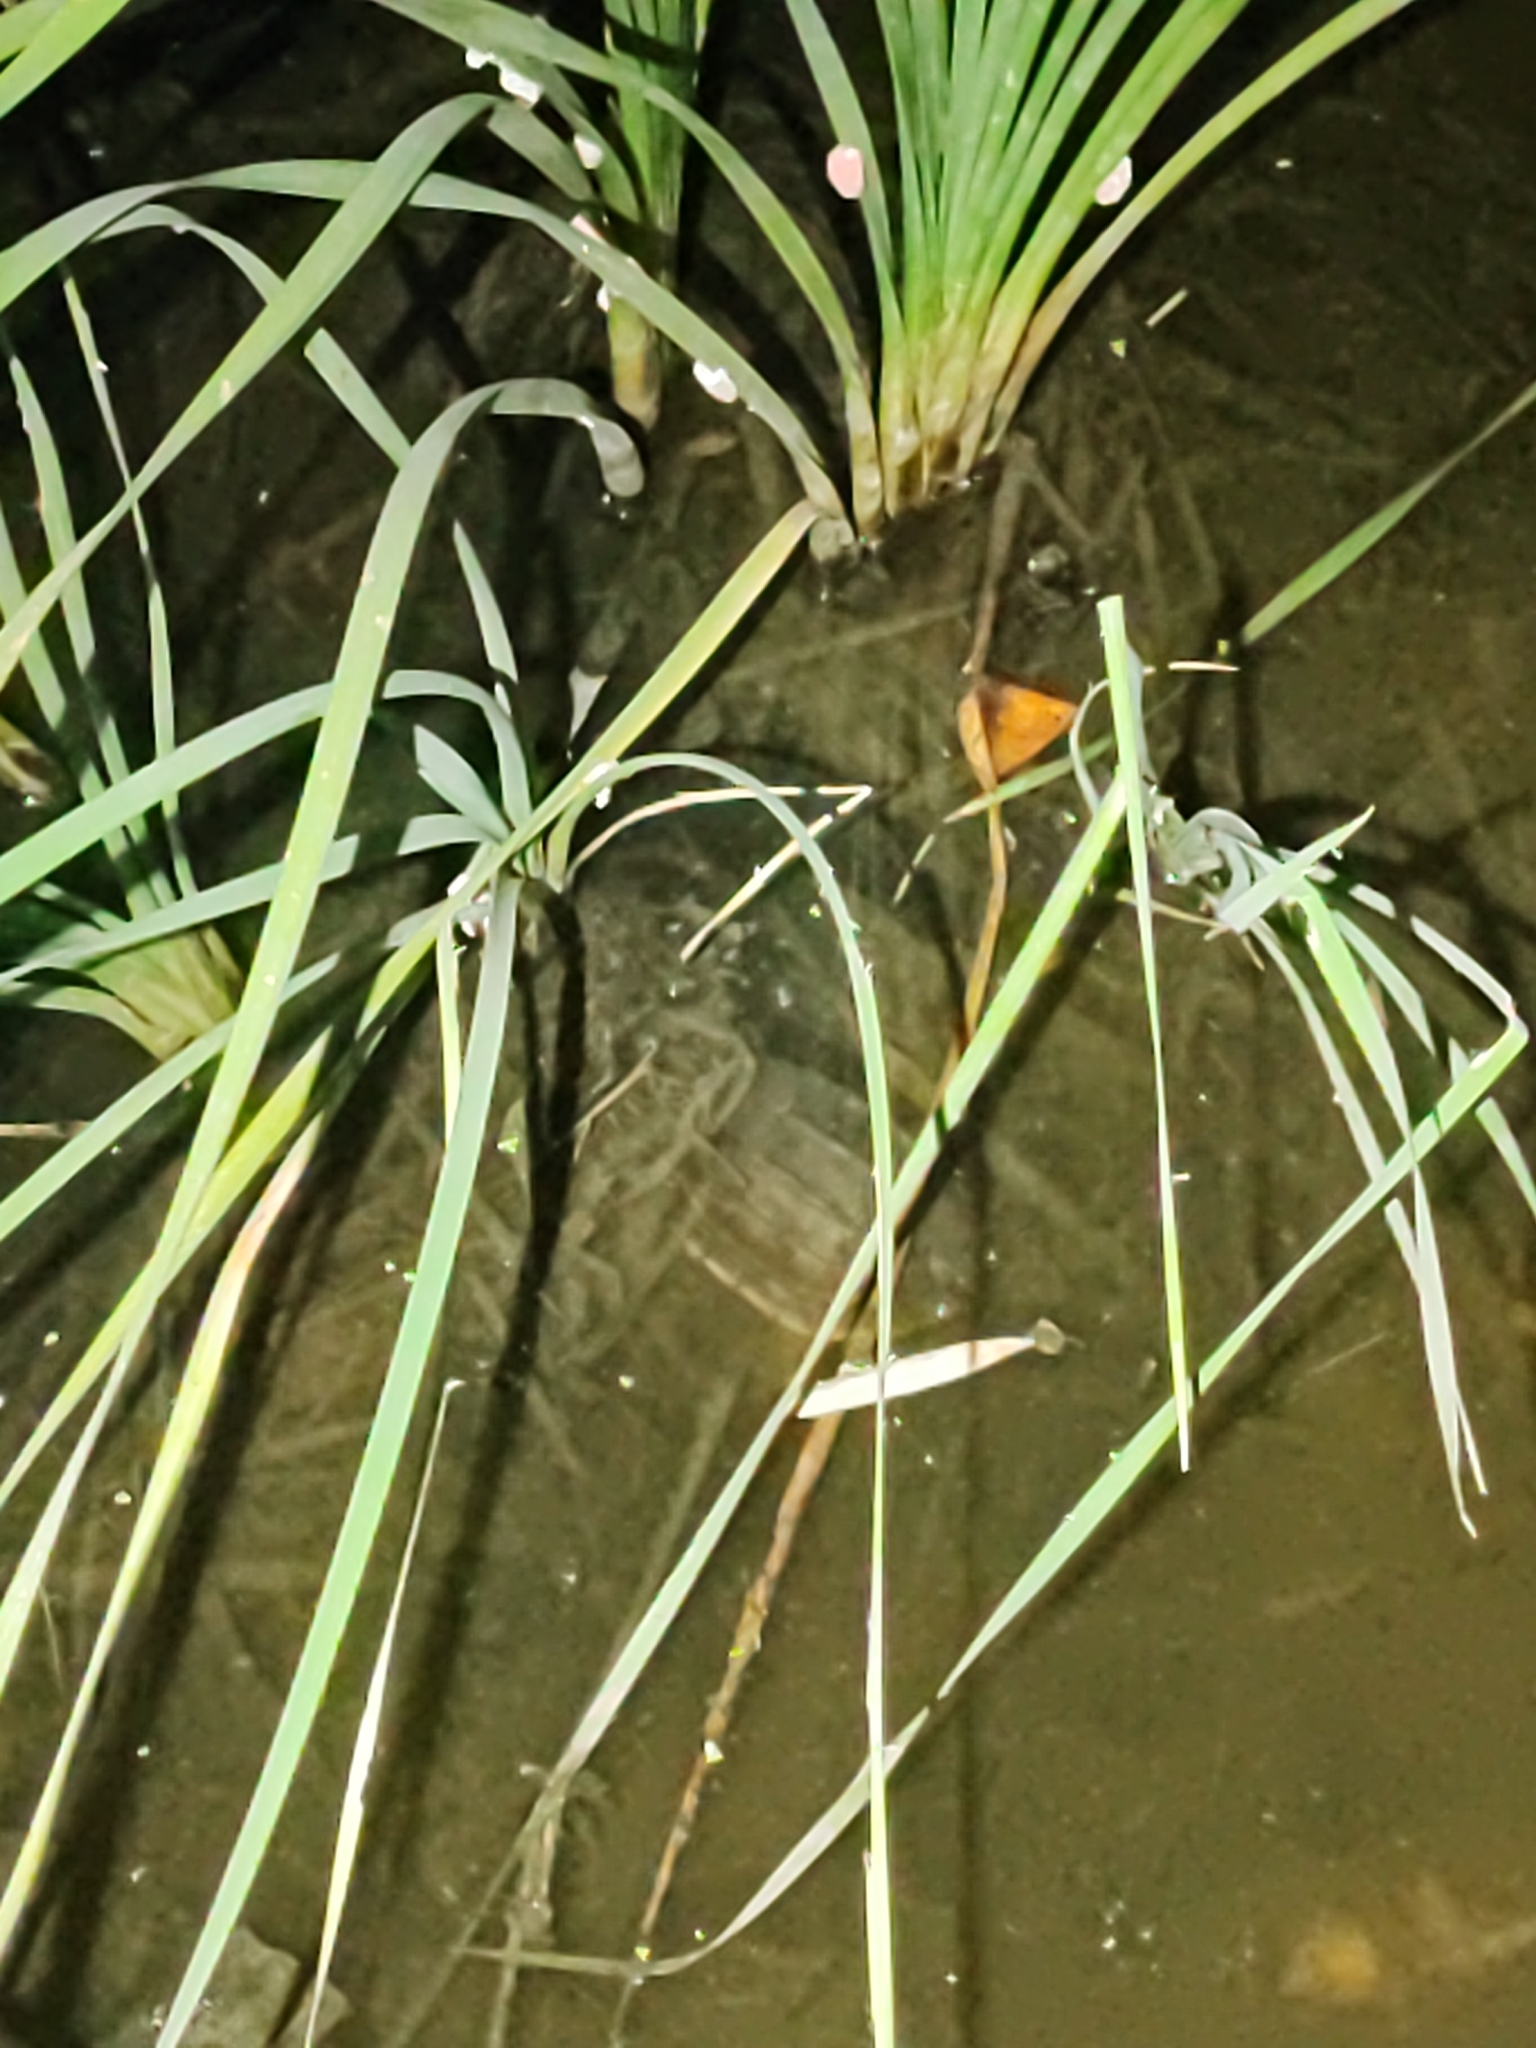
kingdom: Animalia
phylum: Chordata
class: Testudines
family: Geoemydidae
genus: Malayemys
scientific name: Malayemys macrocephala
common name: Malayan snail-eating turtle
